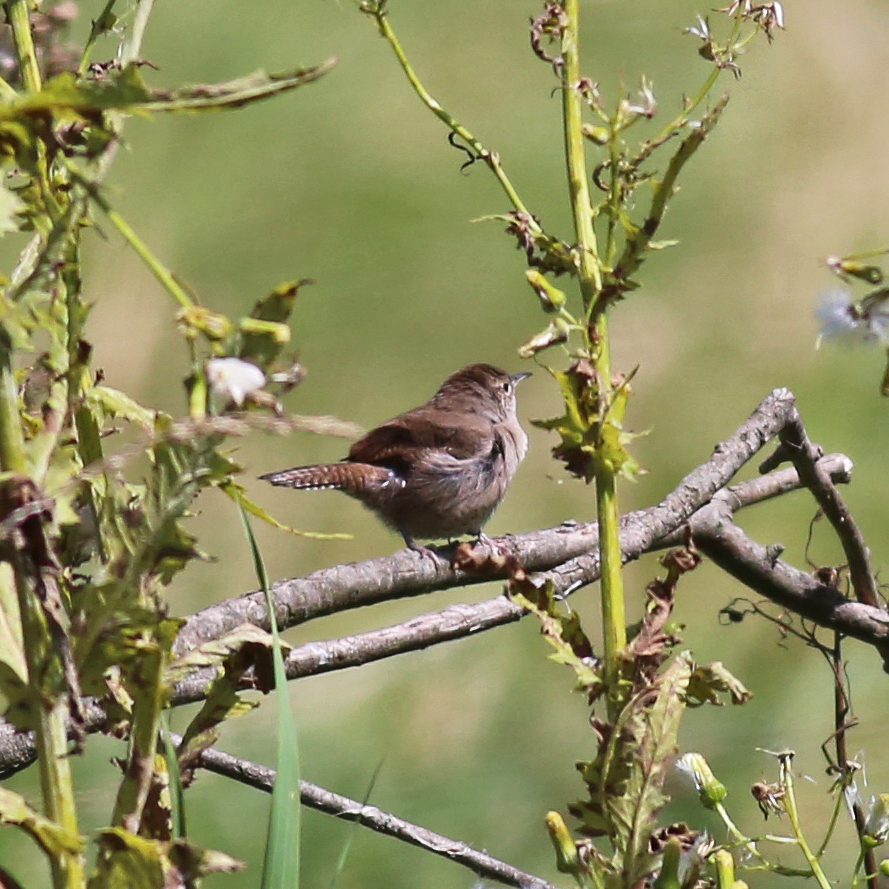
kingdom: Animalia
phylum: Chordata
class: Aves
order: Passeriformes
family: Troglodytidae
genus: Troglodytes
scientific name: Troglodytes aedon
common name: House wren
